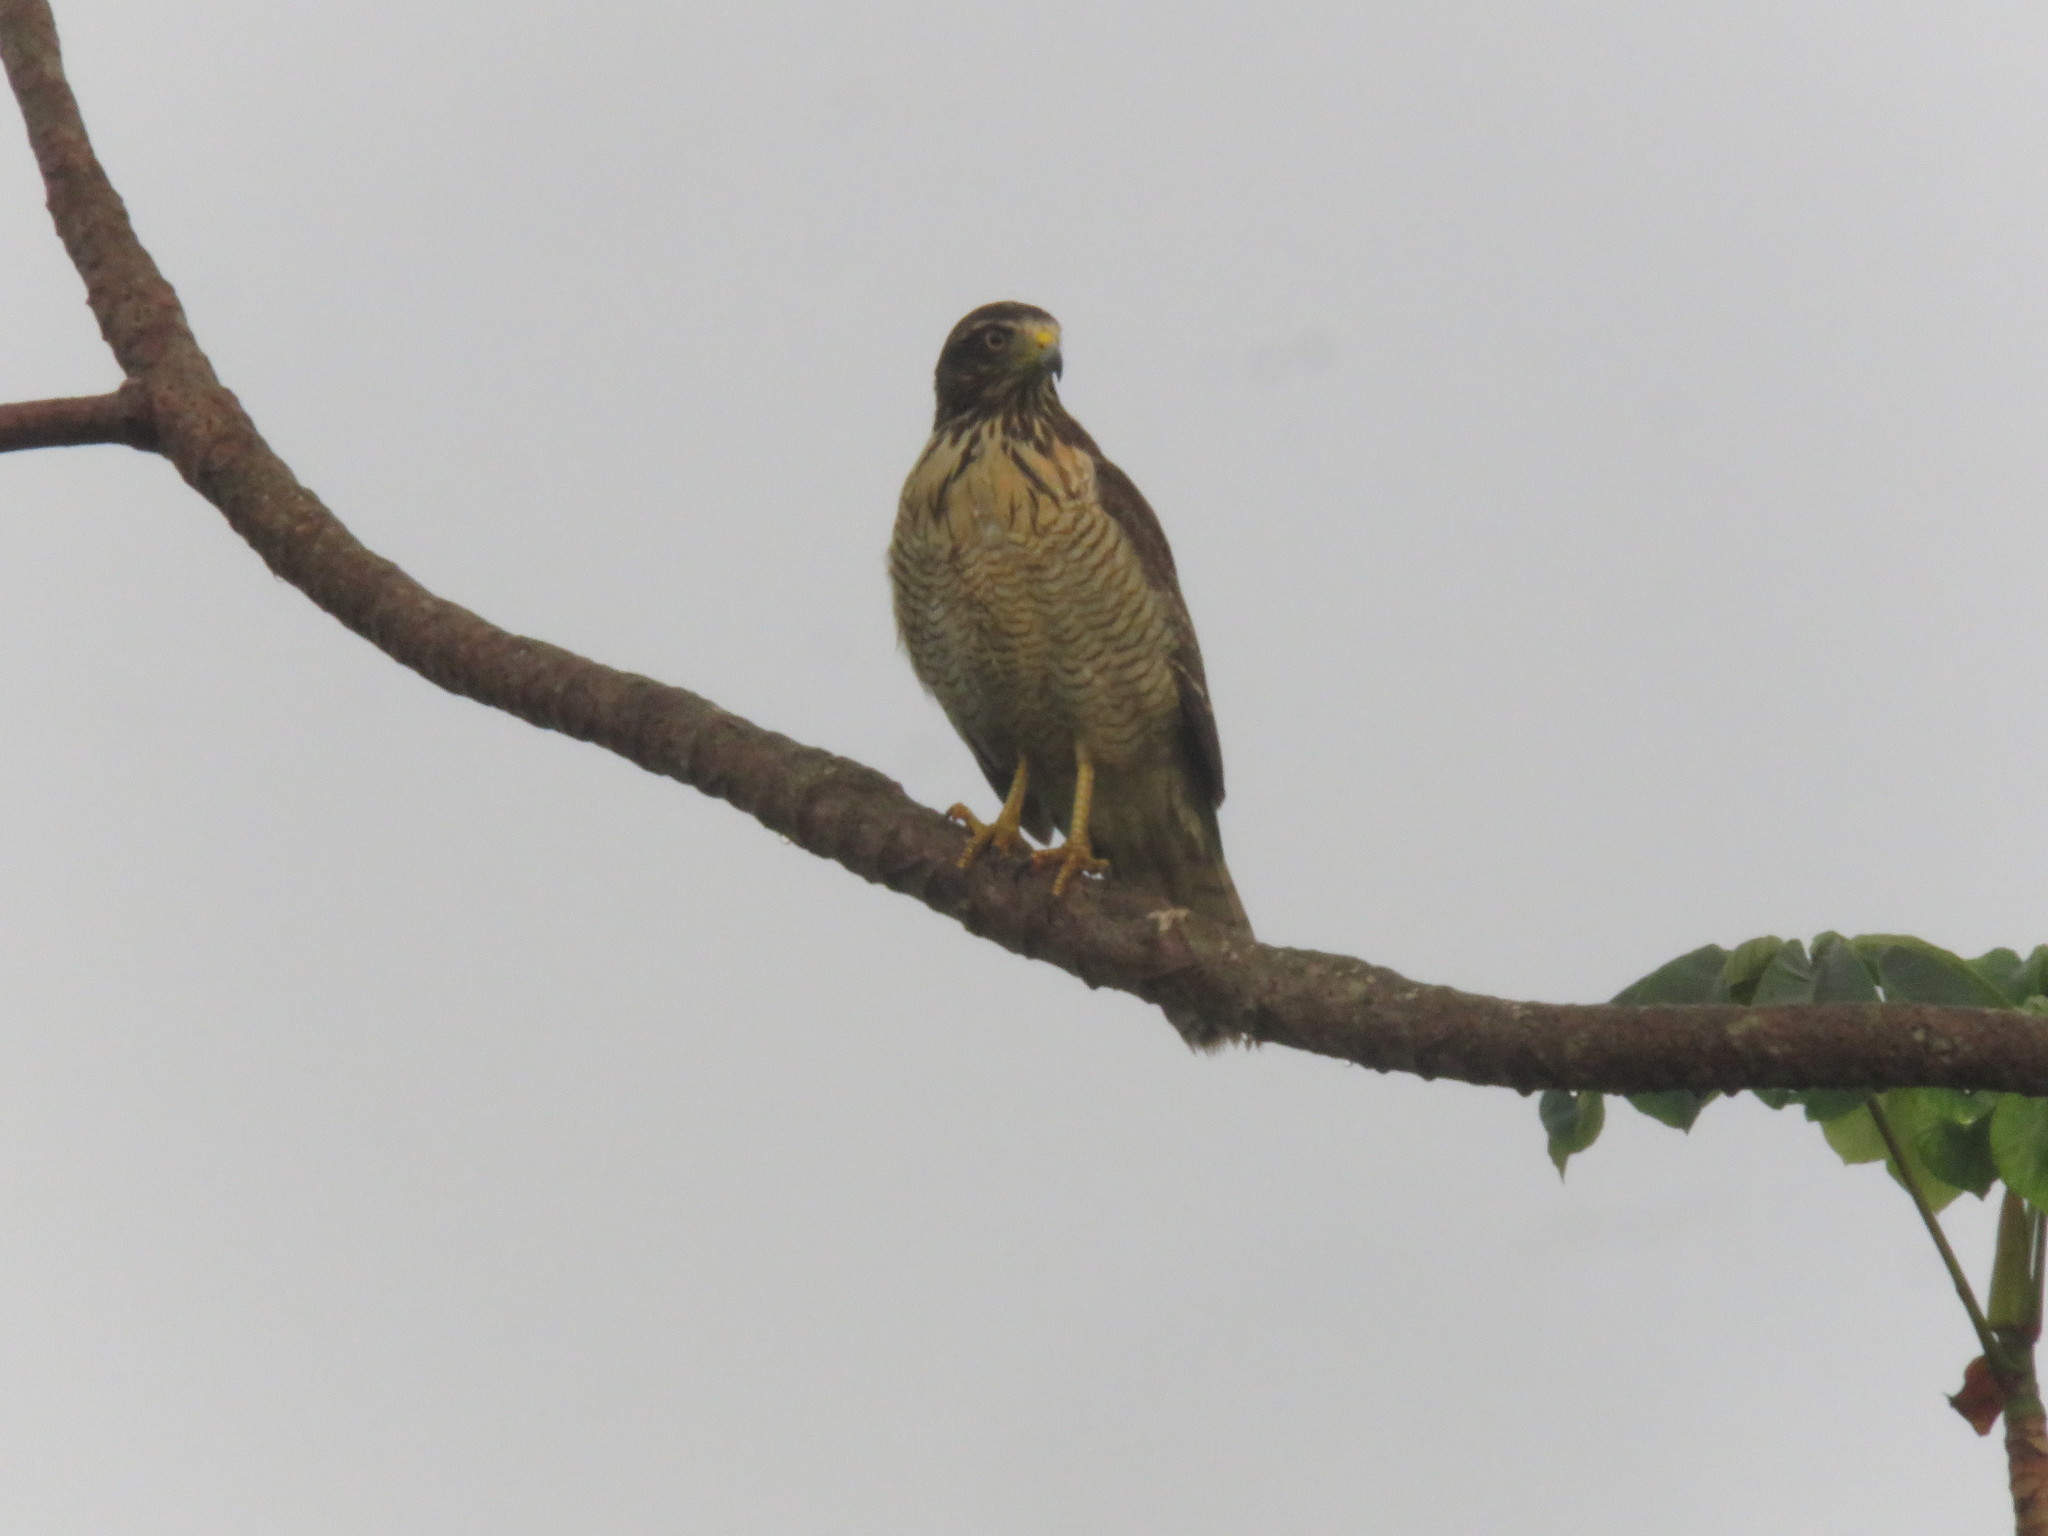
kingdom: Animalia
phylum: Chordata
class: Aves
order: Accipitriformes
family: Accipitridae
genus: Rupornis
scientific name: Rupornis magnirostris
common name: Roadside hawk
